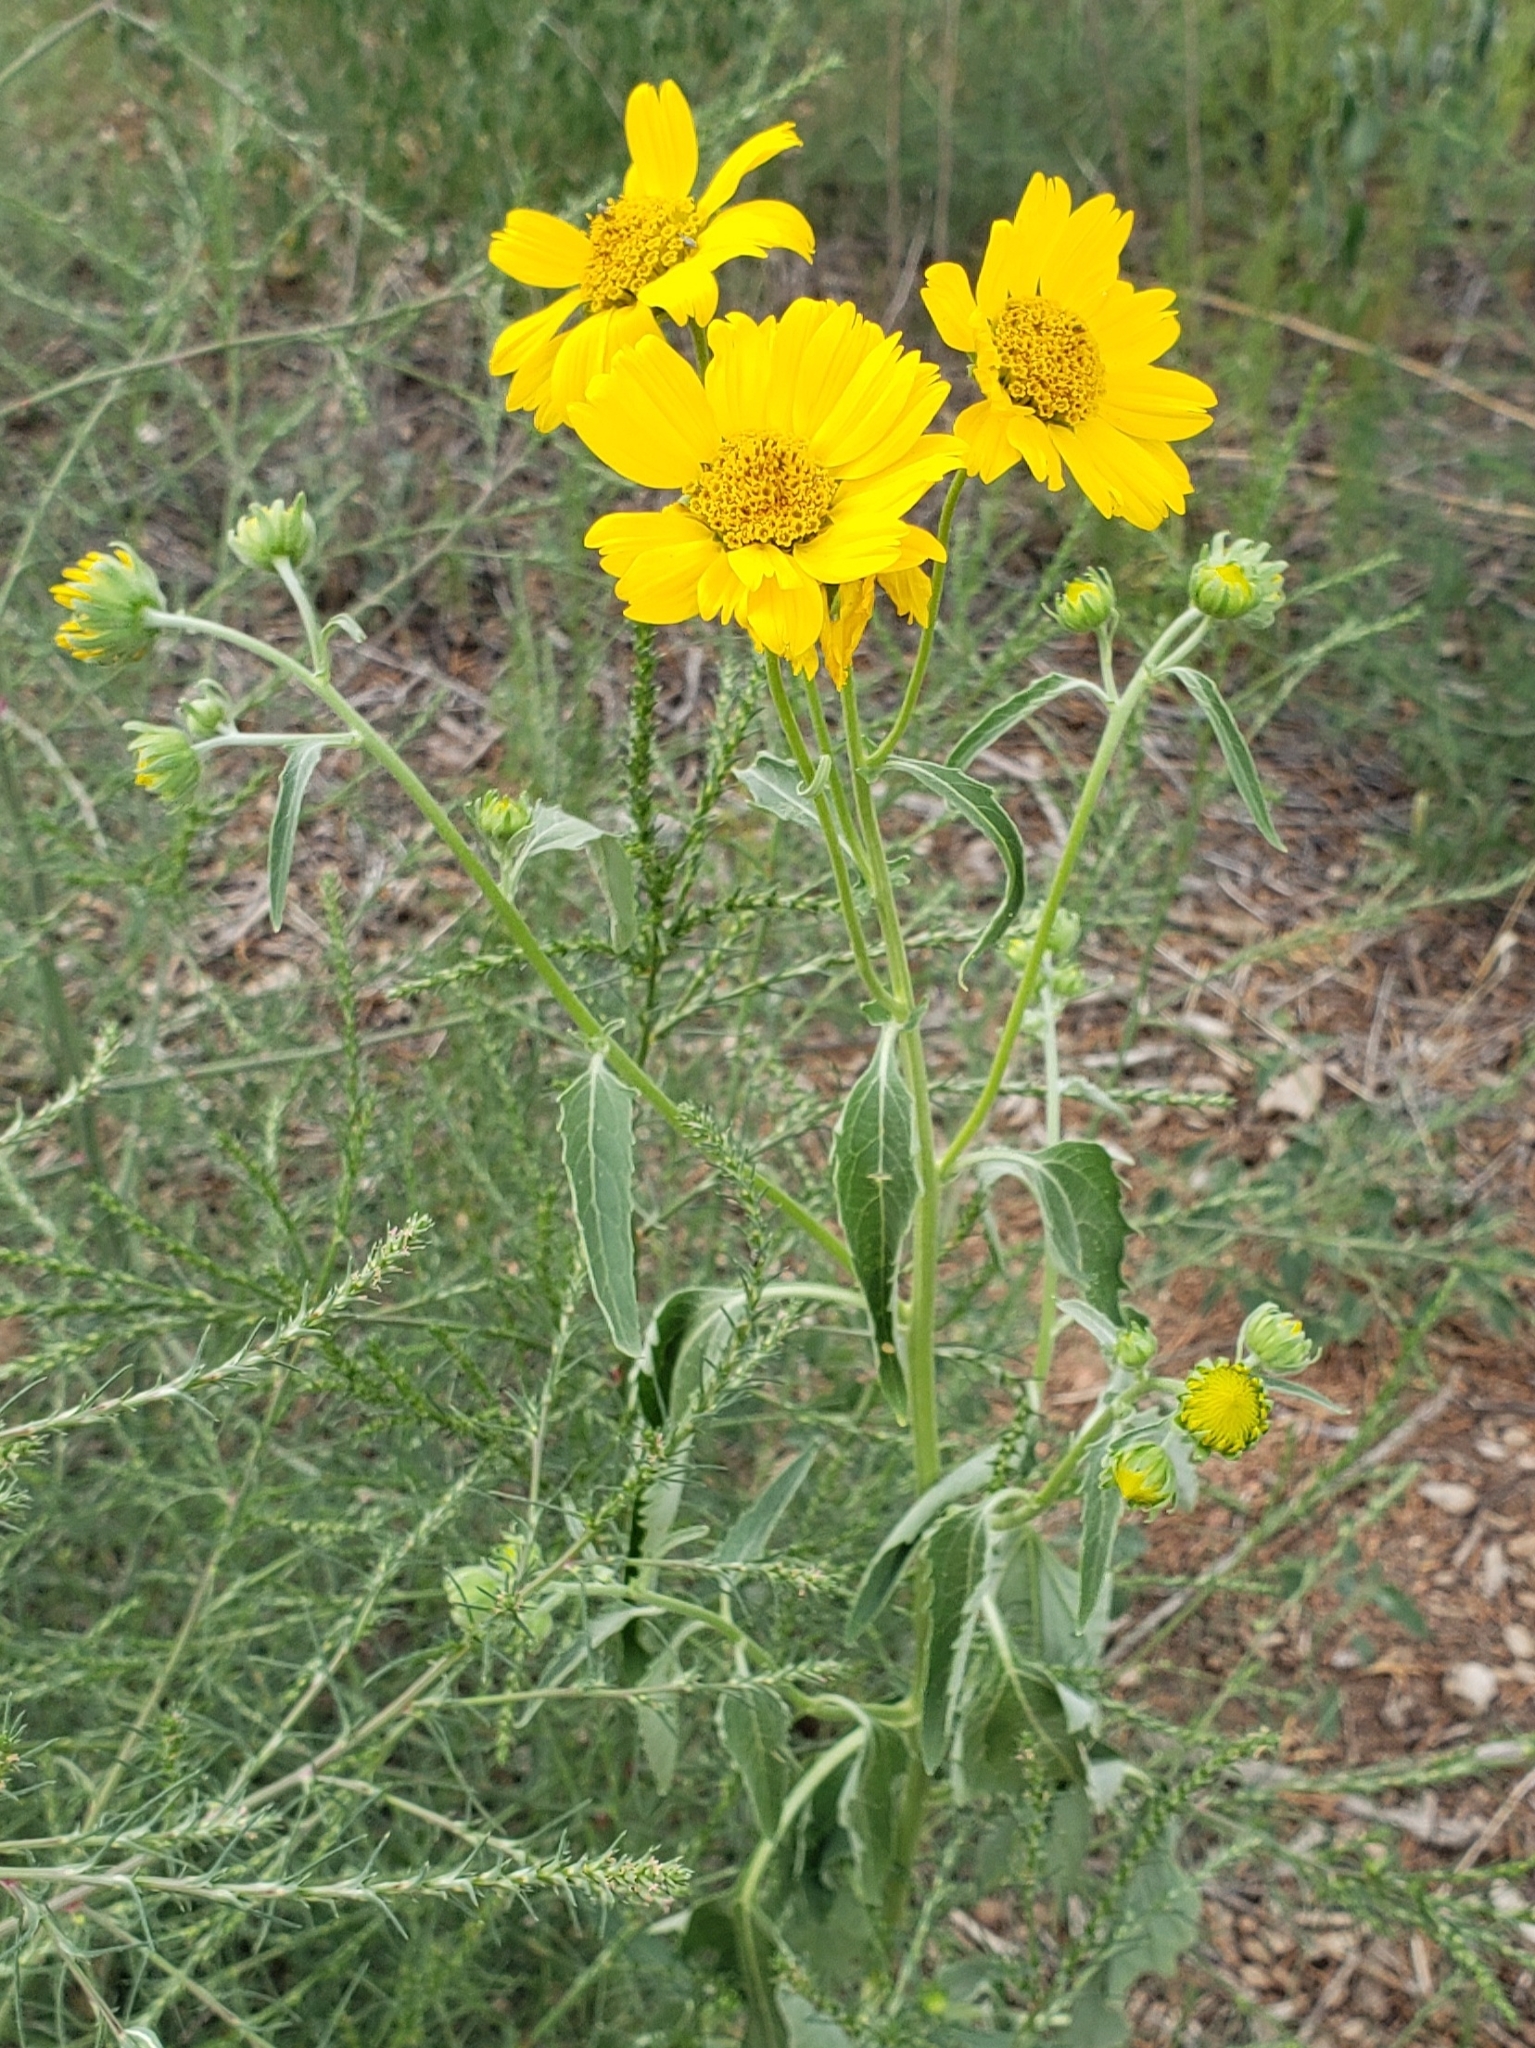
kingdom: Plantae
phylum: Tracheophyta
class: Magnoliopsida
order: Asterales
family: Asteraceae
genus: Verbesina
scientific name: Verbesina encelioides
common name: Golden crownbeard
